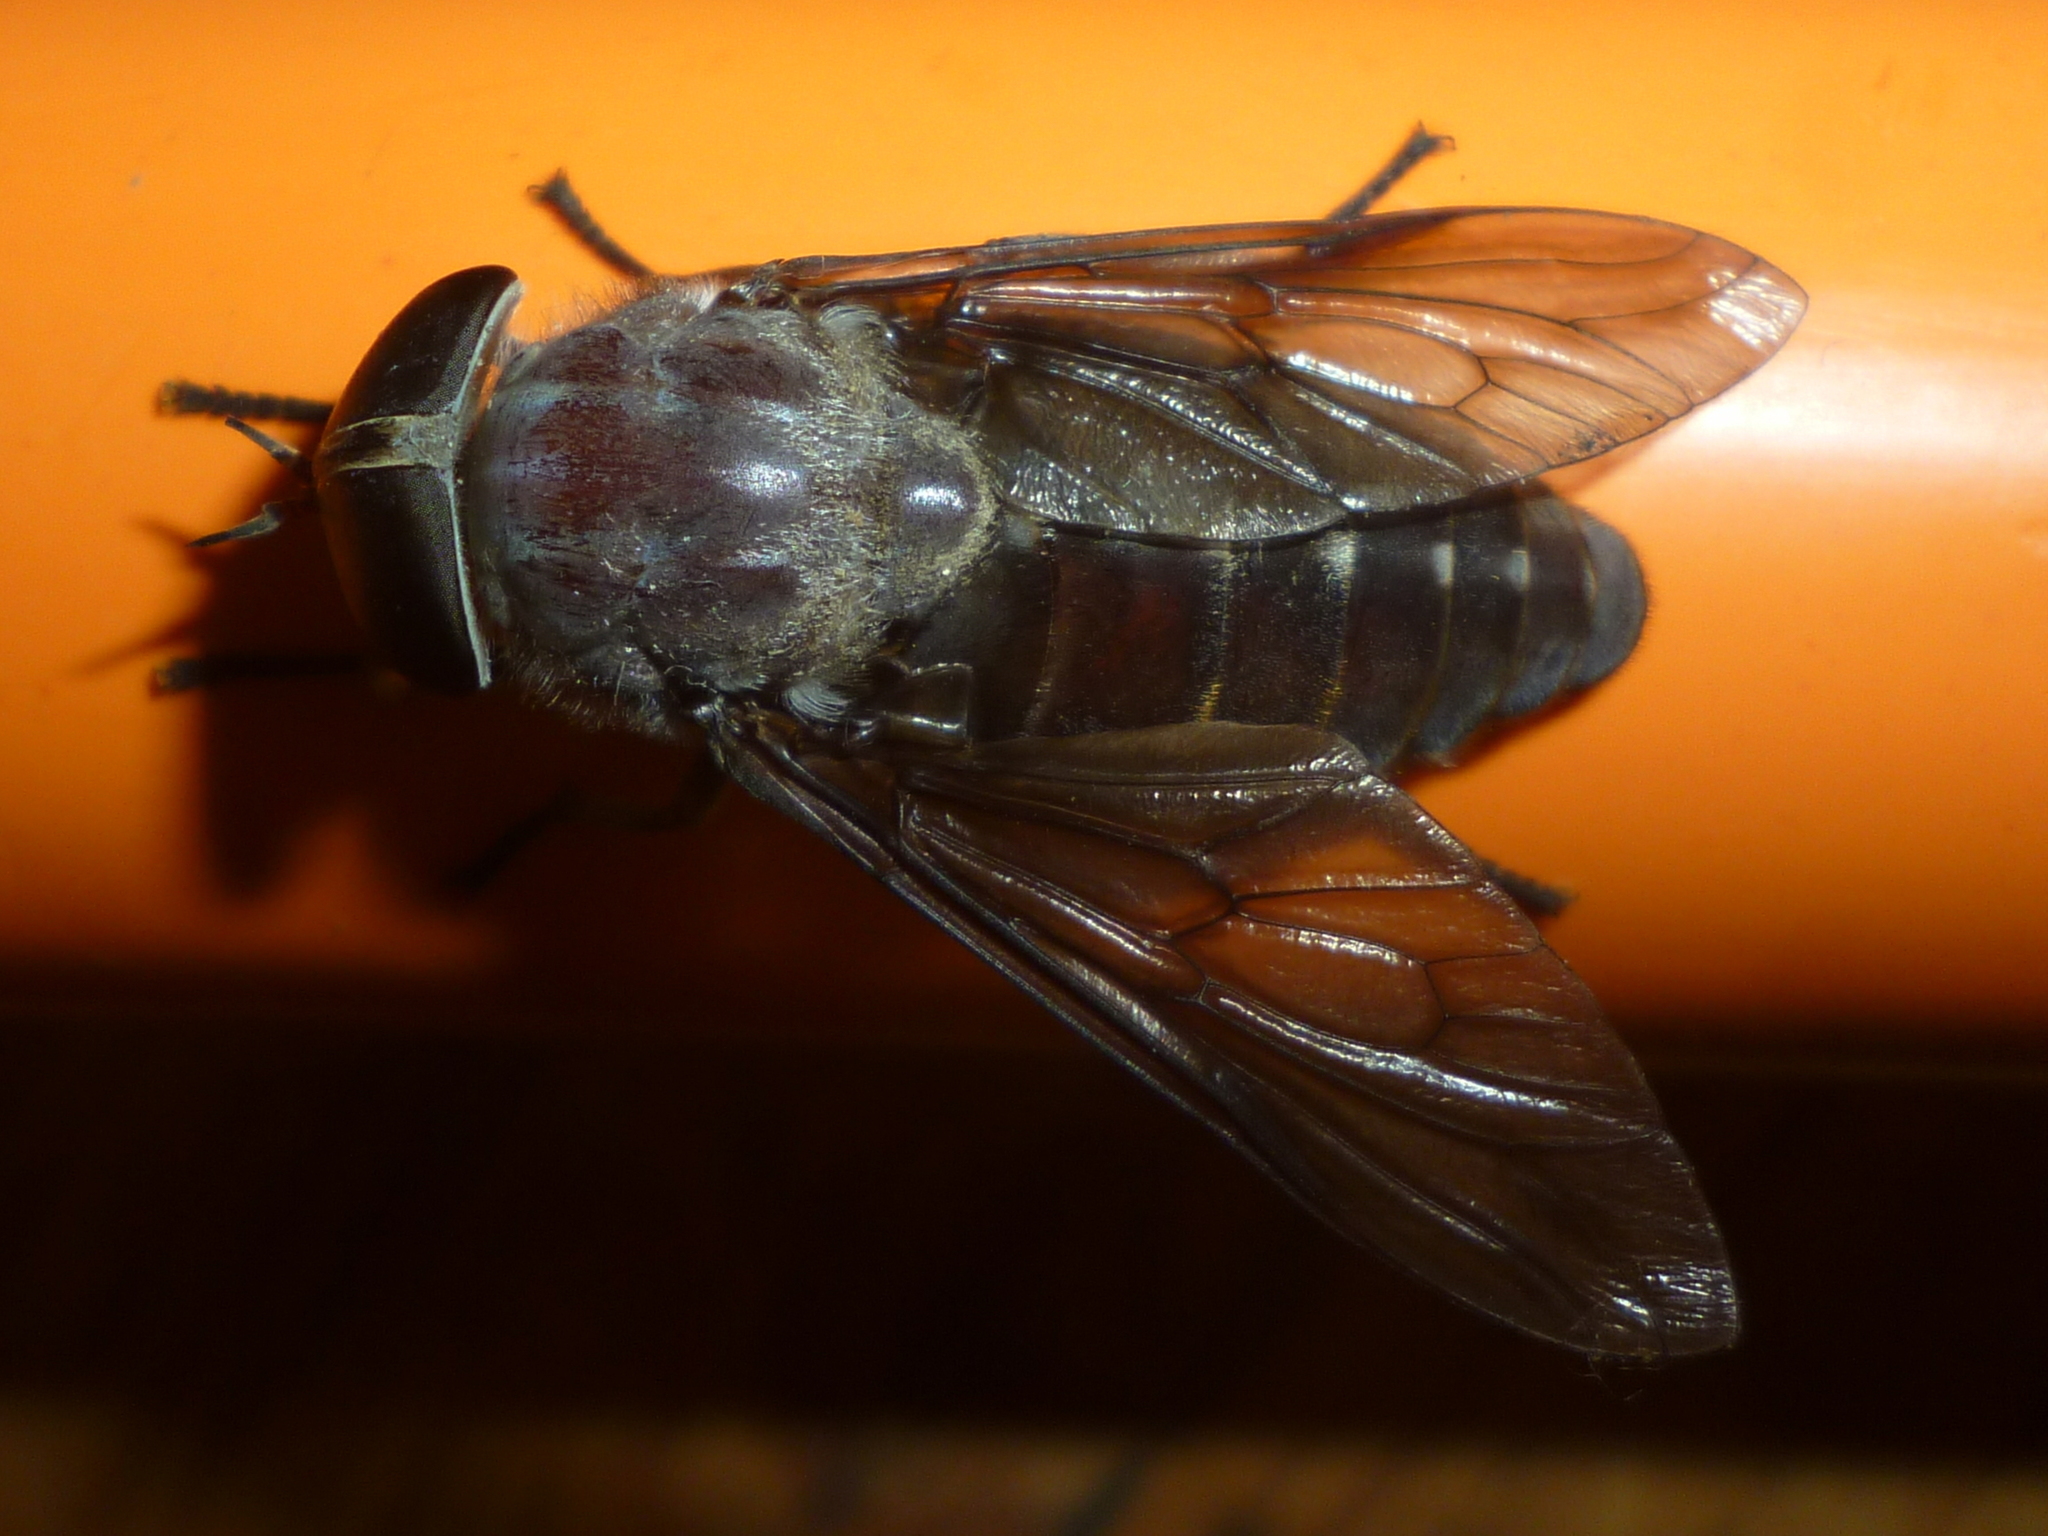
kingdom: Animalia
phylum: Arthropoda
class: Insecta
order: Diptera
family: Tabanidae
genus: Tabanus
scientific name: Tabanus catenatus
